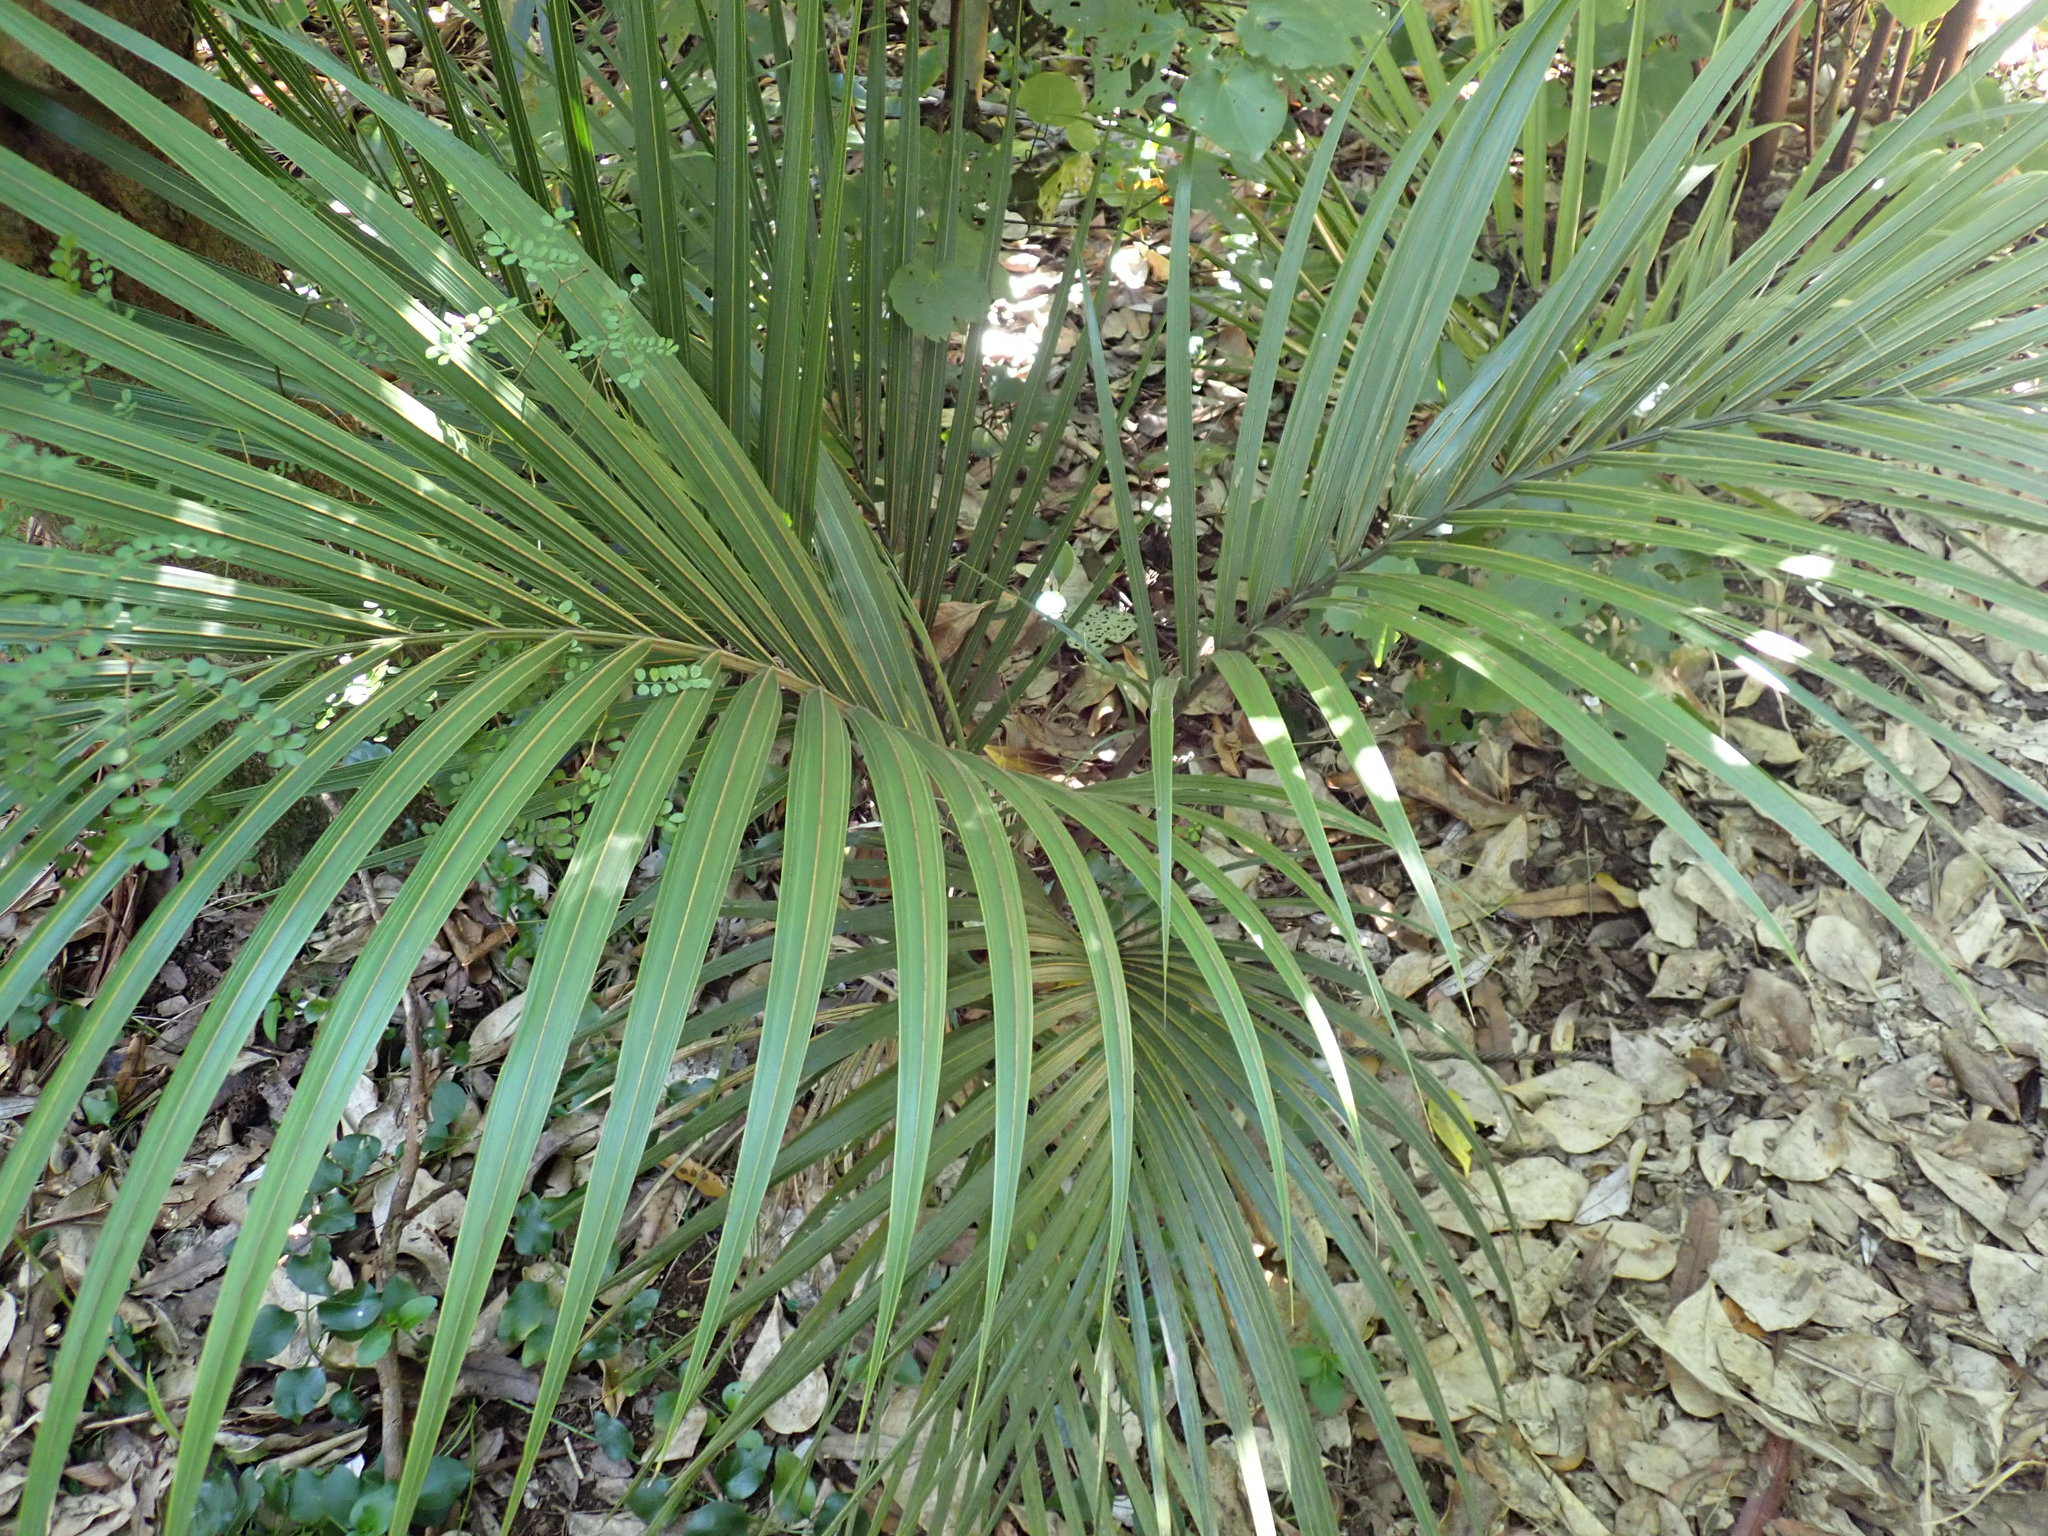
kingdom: Plantae
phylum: Tracheophyta
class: Liliopsida
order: Arecales
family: Arecaceae
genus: Rhopalostylis
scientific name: Rhopalostylis sapida
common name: Feather-duster palm
